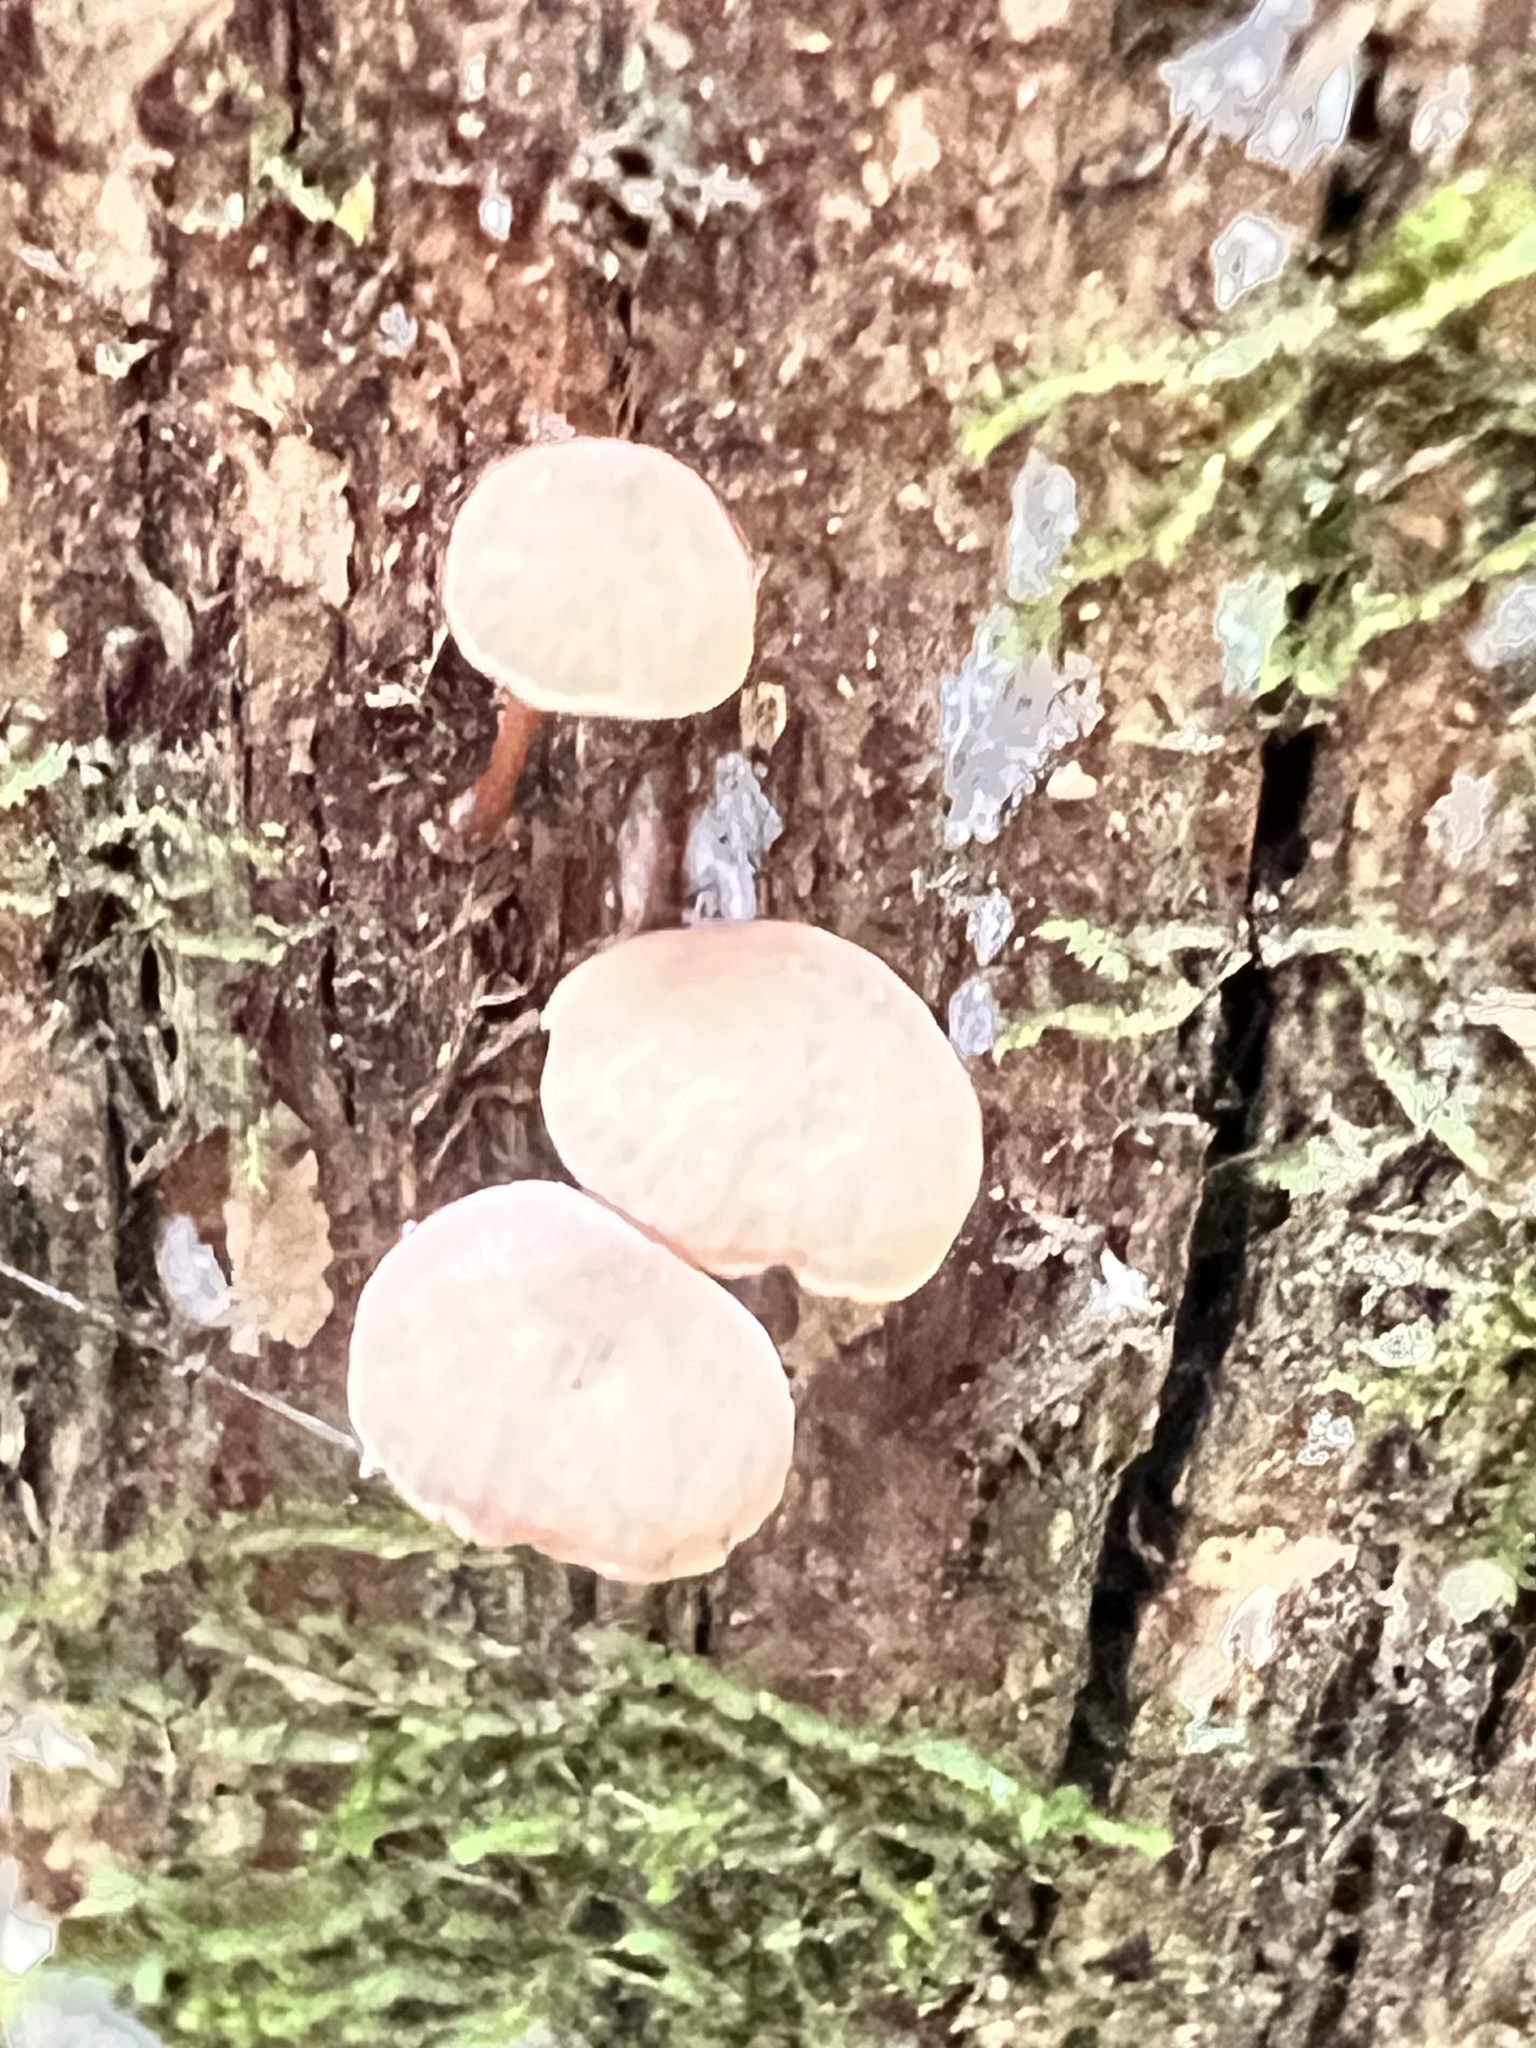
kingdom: Fungi
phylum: Basidiomycota
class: Agaricomycetes
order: Agaricales
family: Omphalotaceae
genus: Mycetinis
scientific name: Mycetinis curraniae
